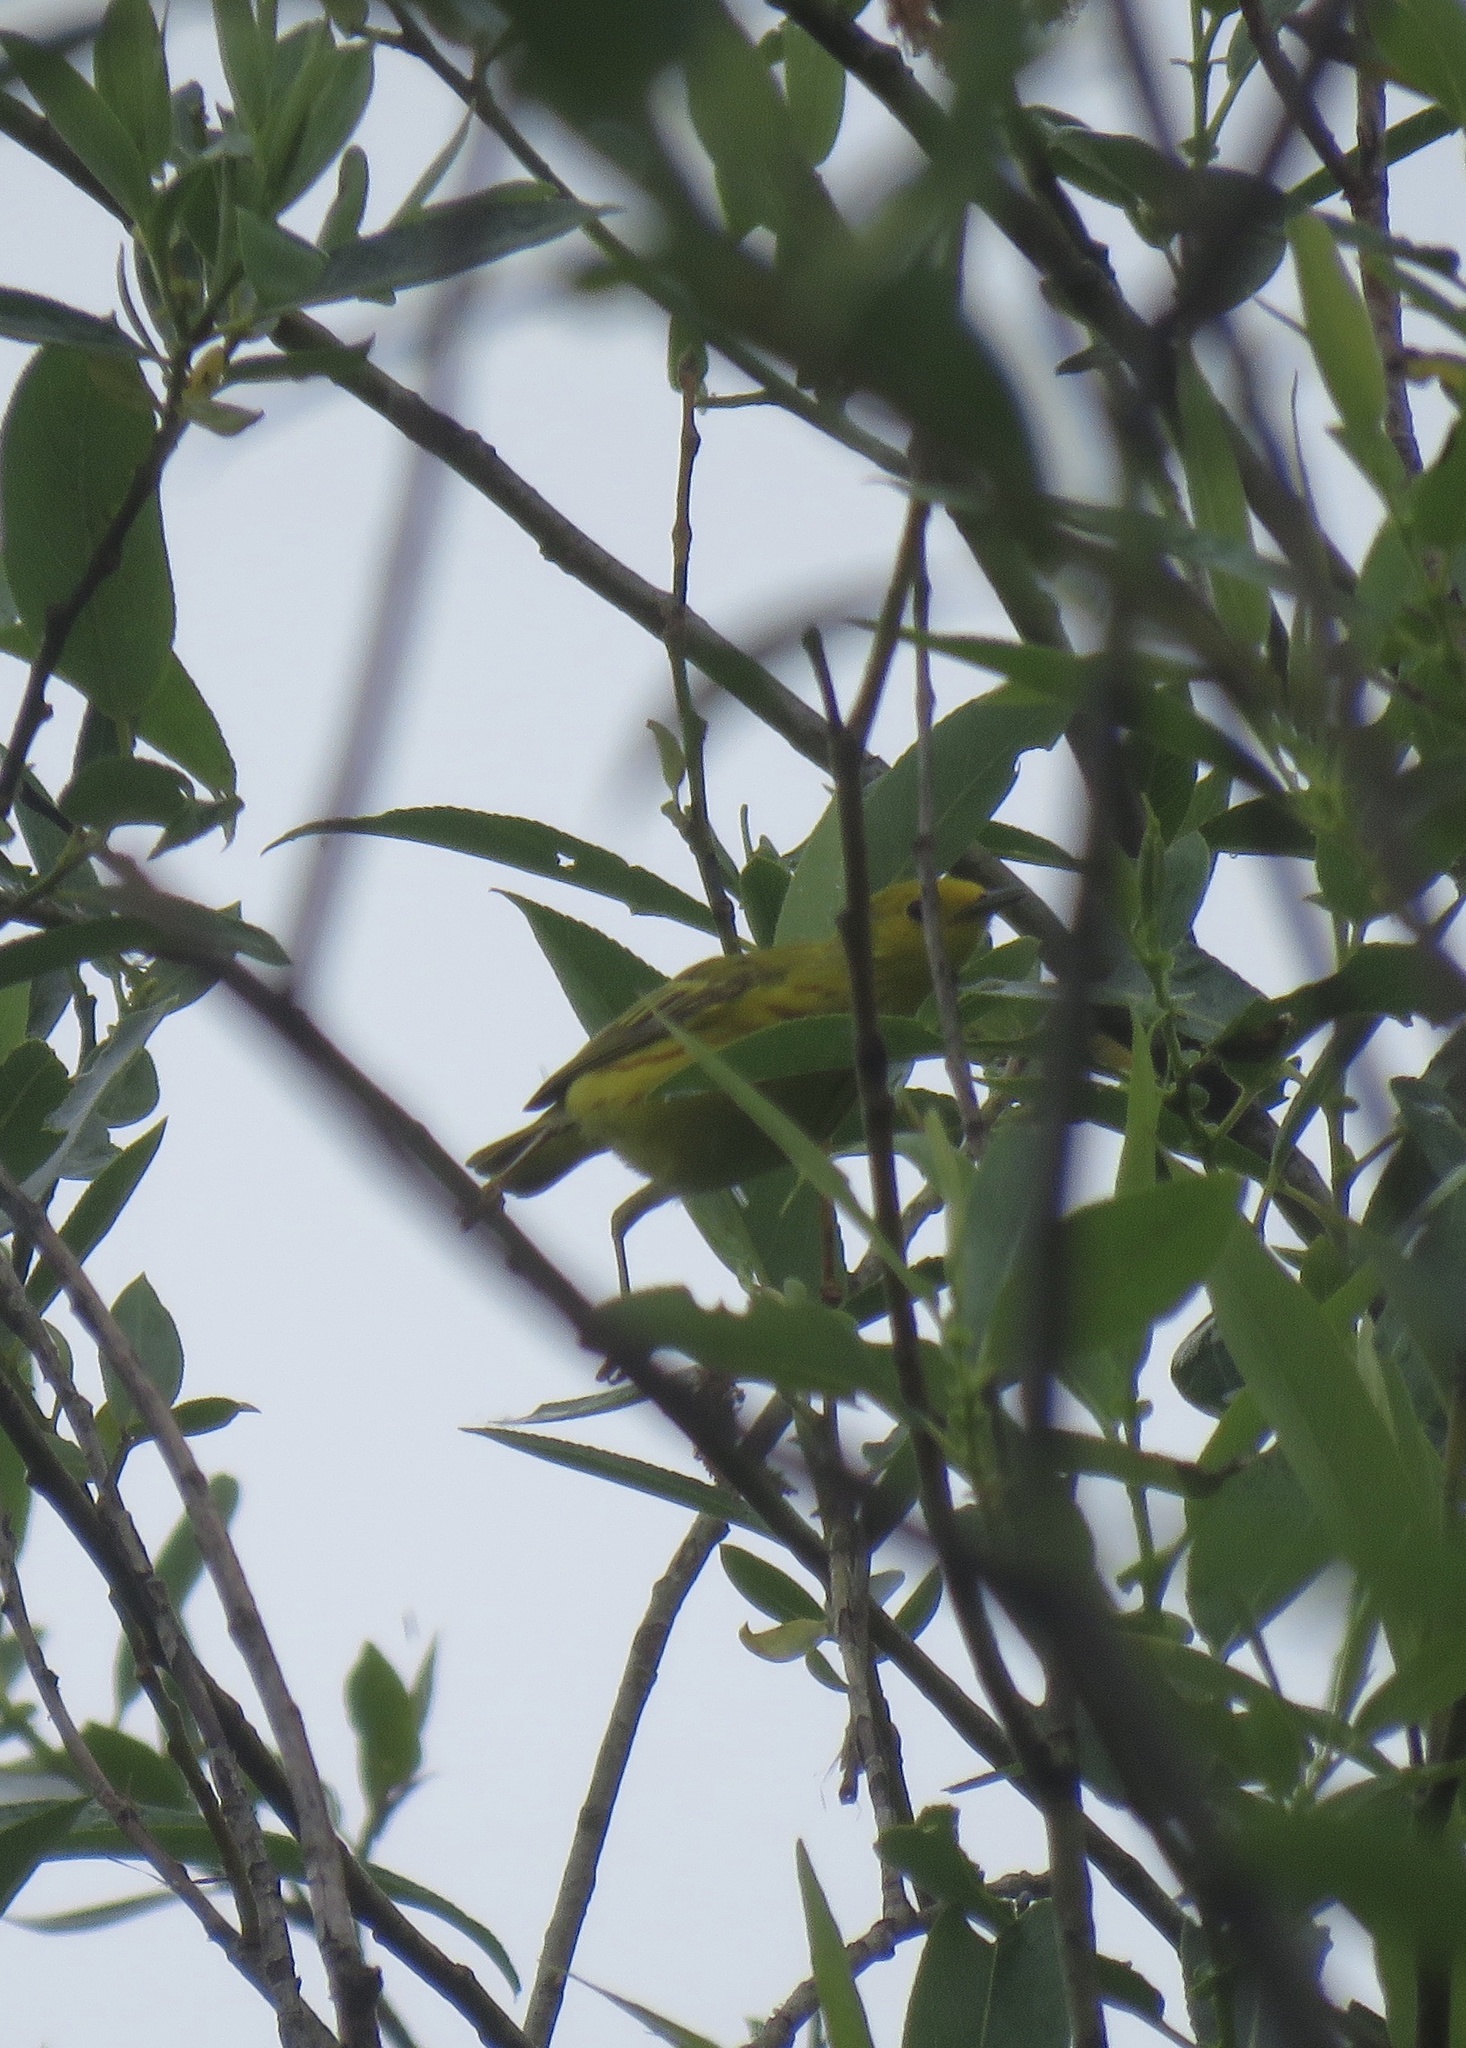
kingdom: Animalia
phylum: Chordata
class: Aves
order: Passeriformes
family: Parulidae
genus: Setophaga
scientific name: Setophaga petechia
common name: Yellow warbler
